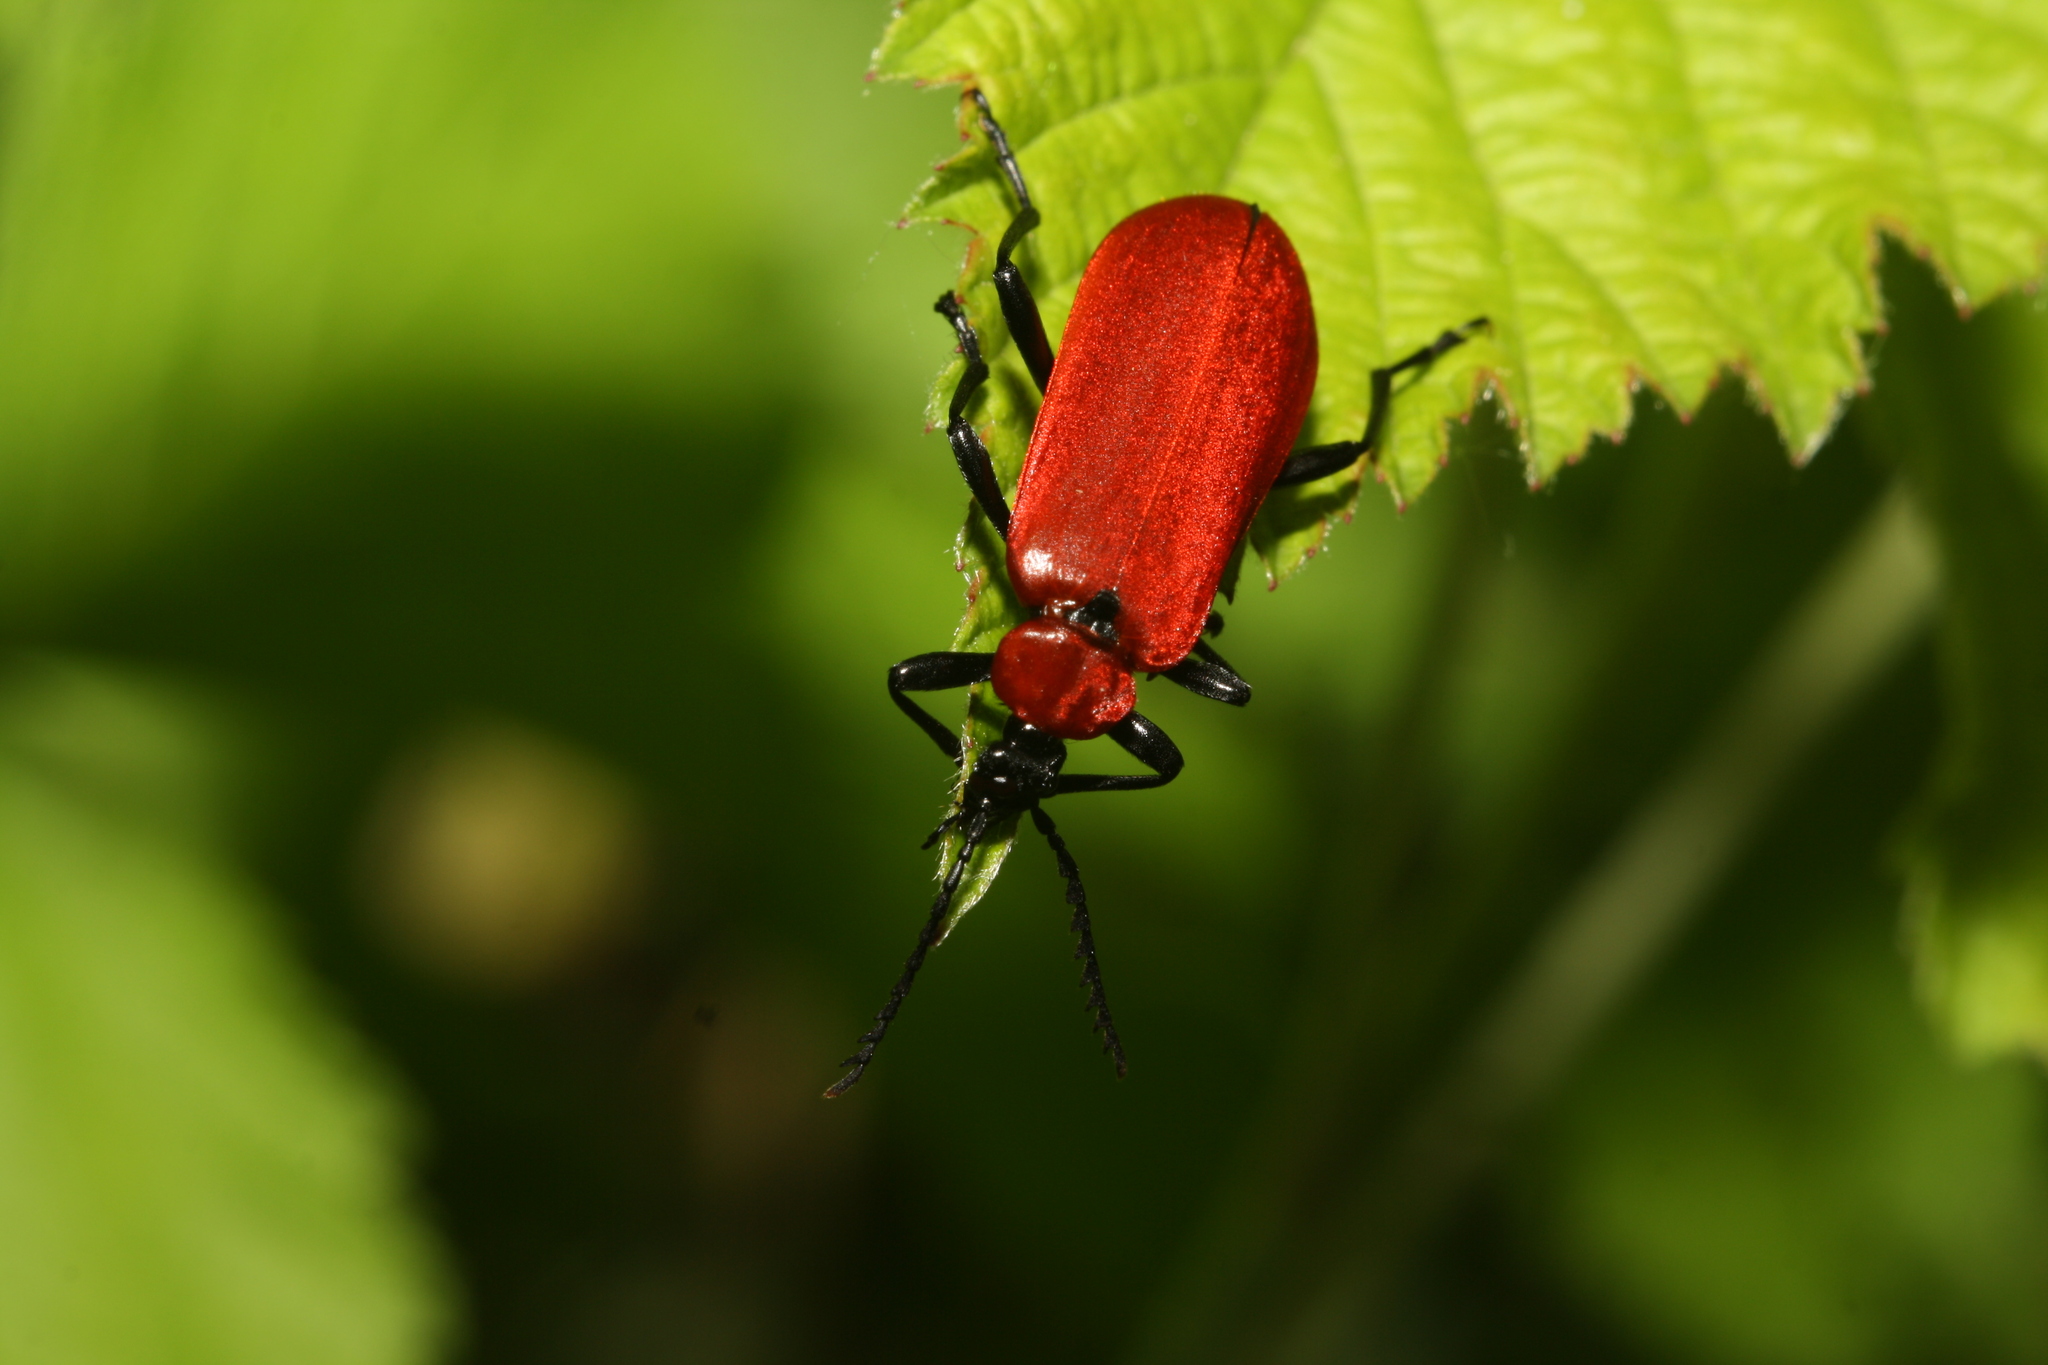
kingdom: Animalia
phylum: Arthropoda
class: Insecta
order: Coleoptera
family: Pyrochroidae
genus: Pyrochroa
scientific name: Pyrochroa coccinea
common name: Black-headed cardinal beetle
